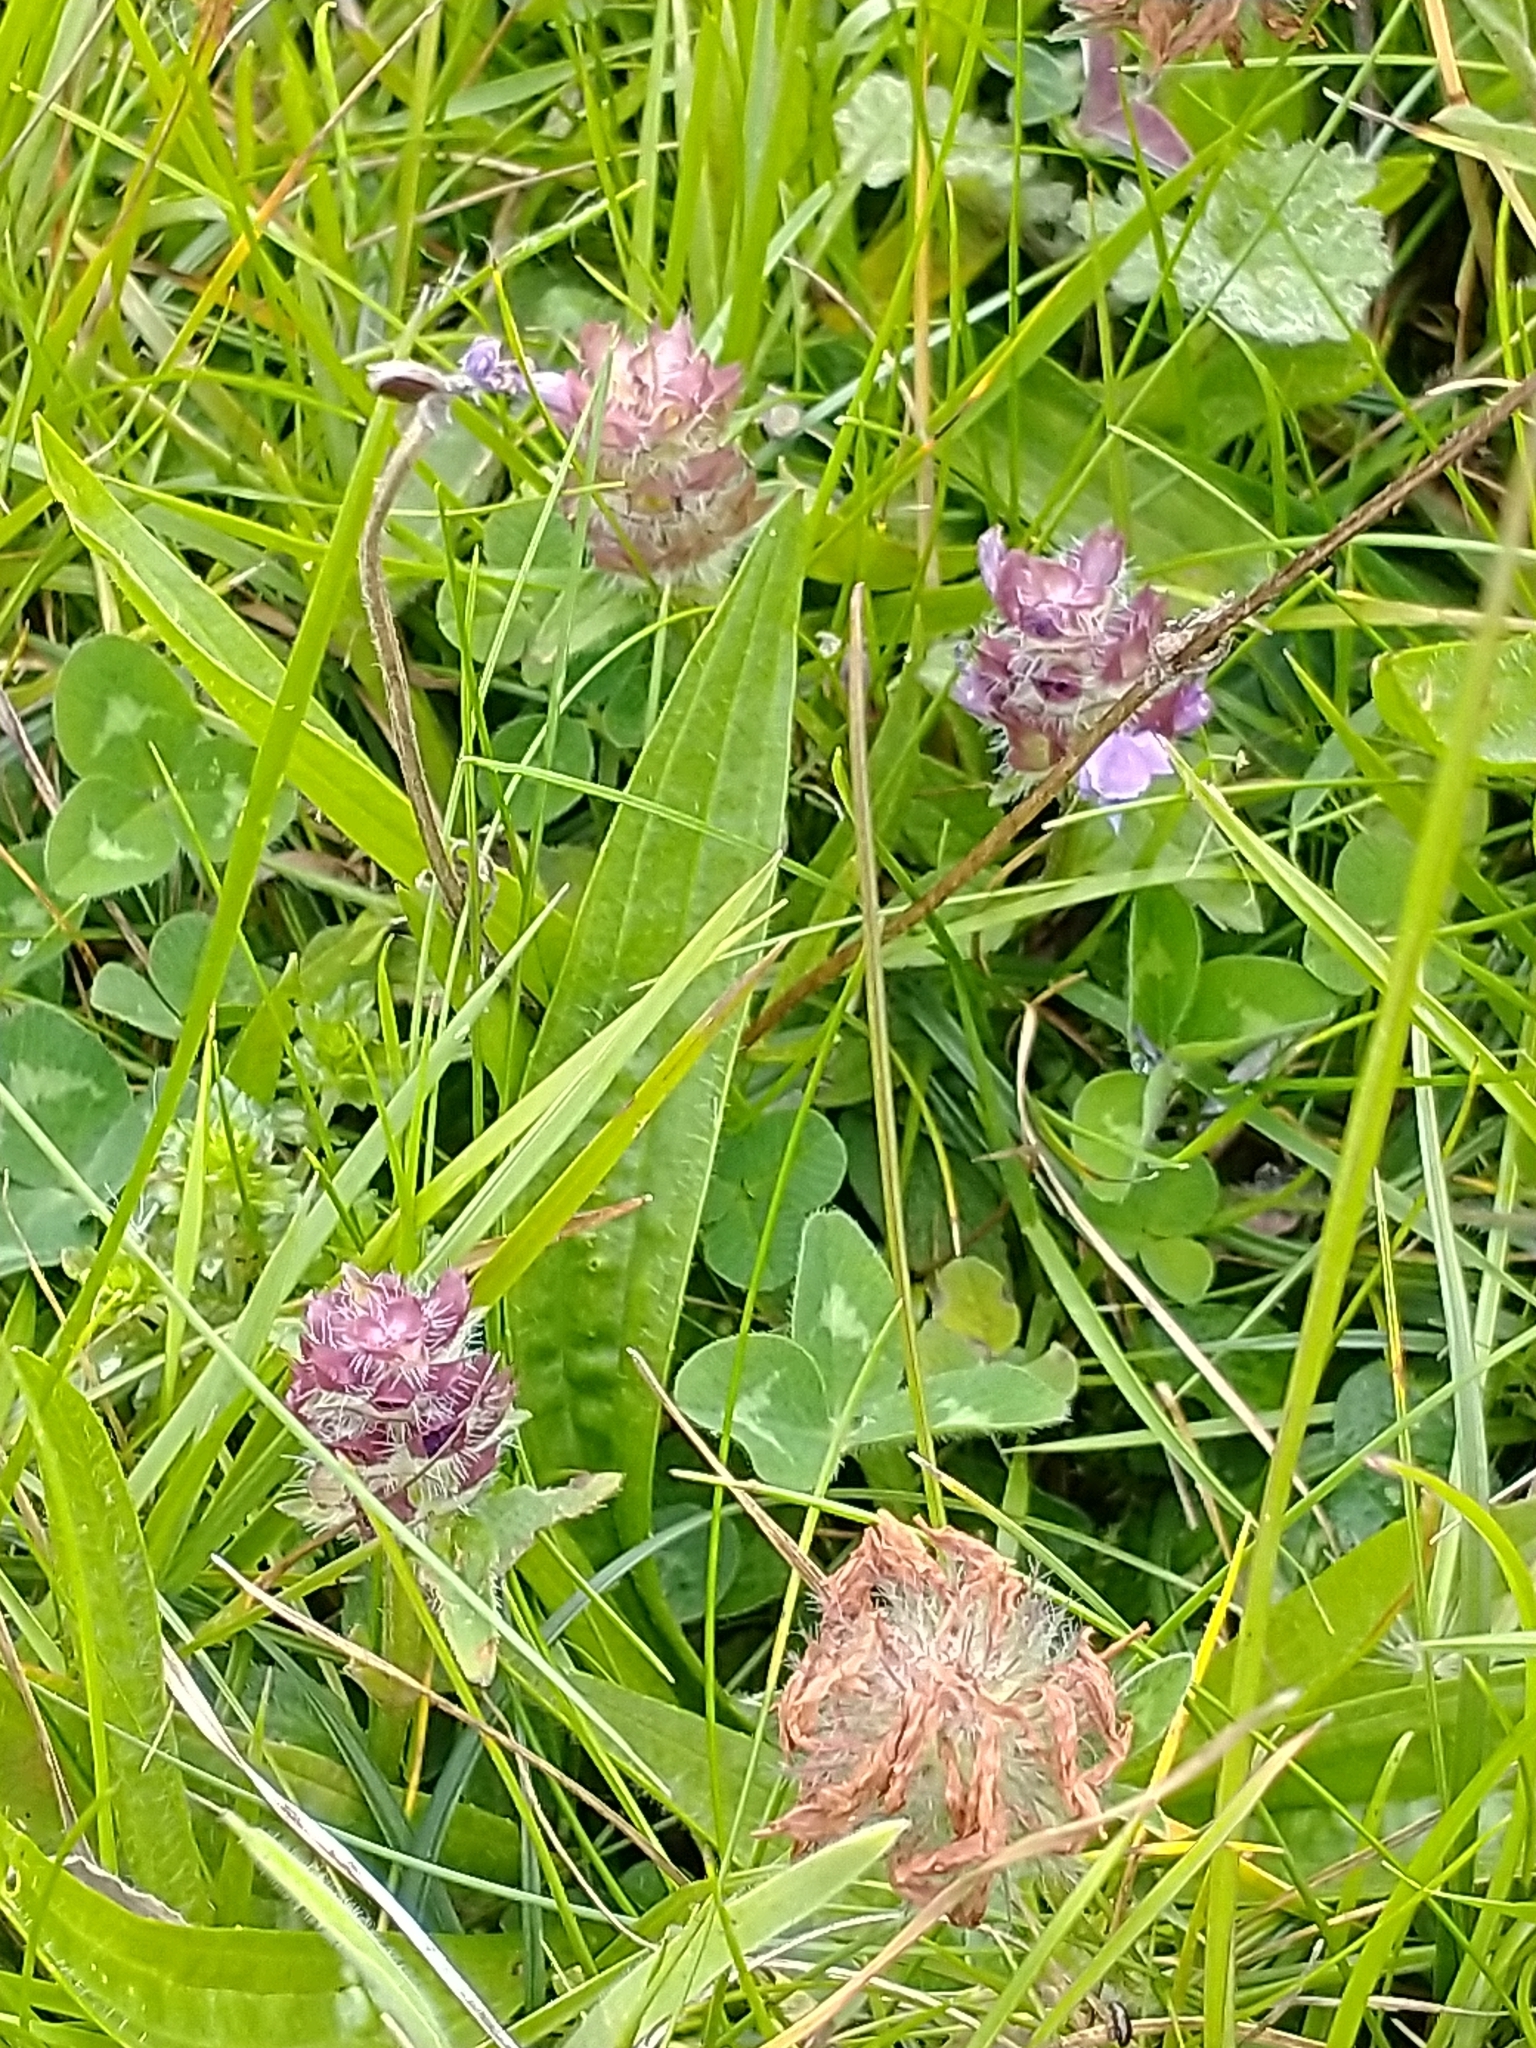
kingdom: Plantae
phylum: Tracheophyta
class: Magnoliopsida
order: Lamiales
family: Lamiaceae
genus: Prunella
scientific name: Prunella vulgaris
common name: Heal-all
